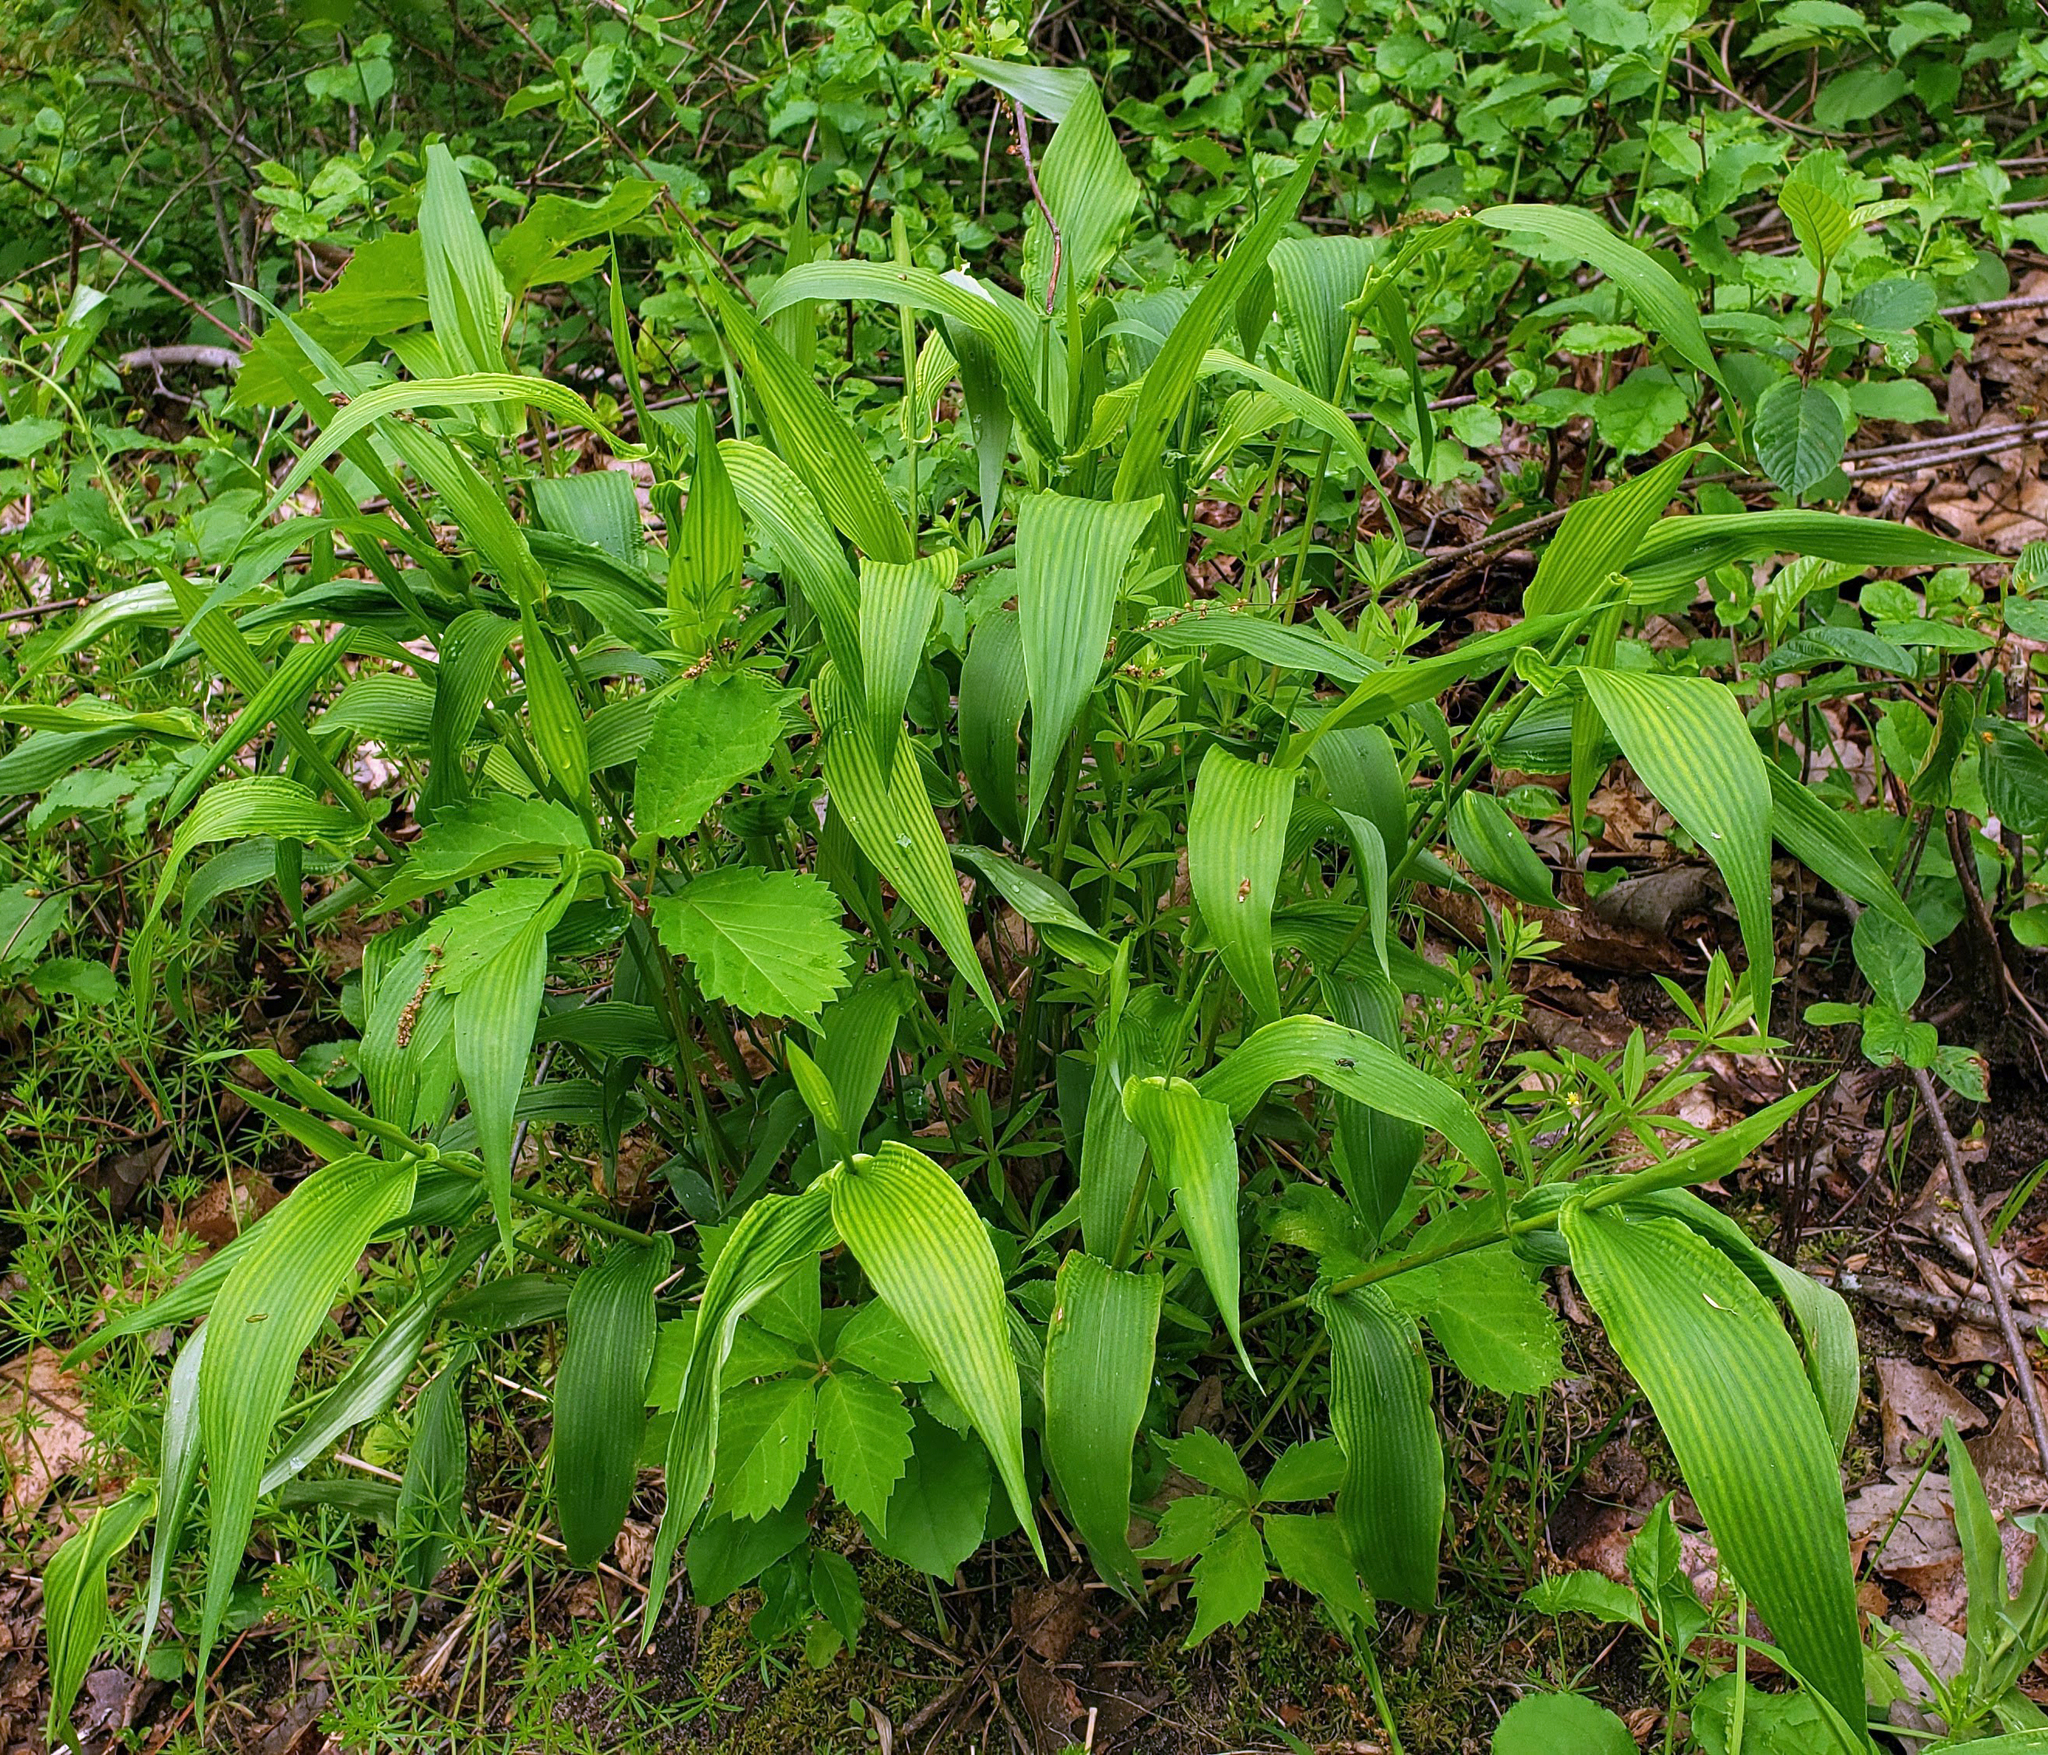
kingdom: Plantae
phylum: Tracheophyta
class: Liliopsida
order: Poales
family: Poaceae
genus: Dichanthelium
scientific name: Dichanthelium latifolium
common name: Broad-leaved panicgrass
